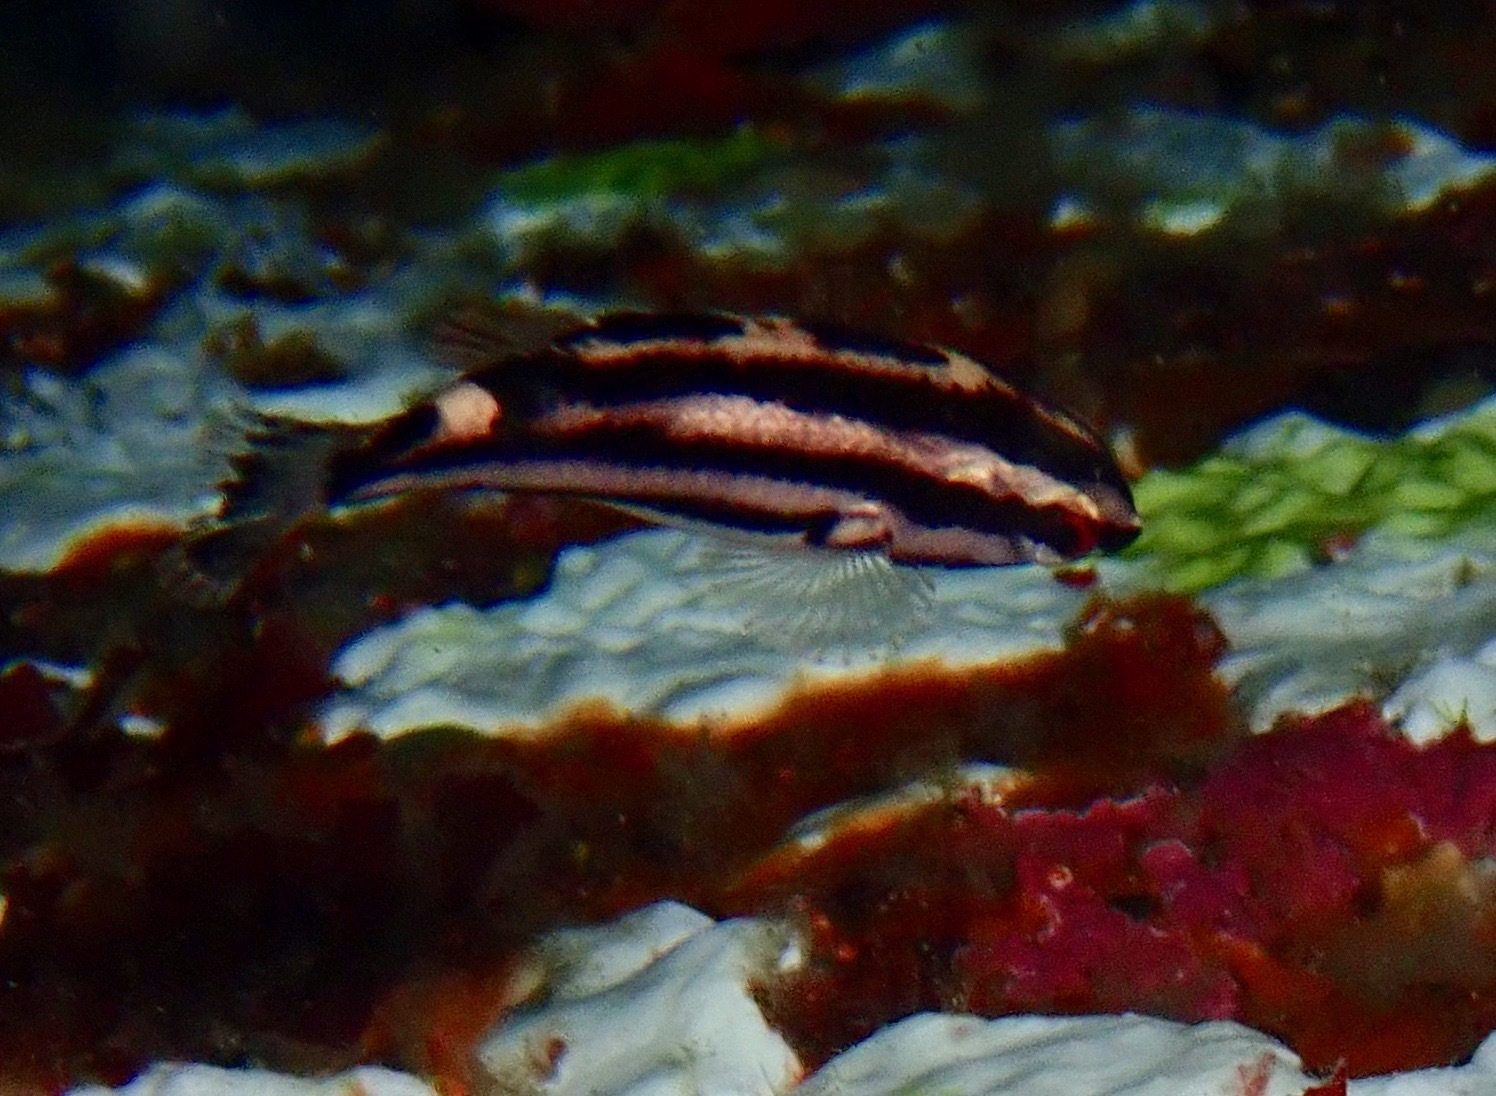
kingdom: Animalia
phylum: Chordata
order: Perciformes
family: Labridae
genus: Bodianus
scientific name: Bodianus eclancheri
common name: Harlequin wrasse
